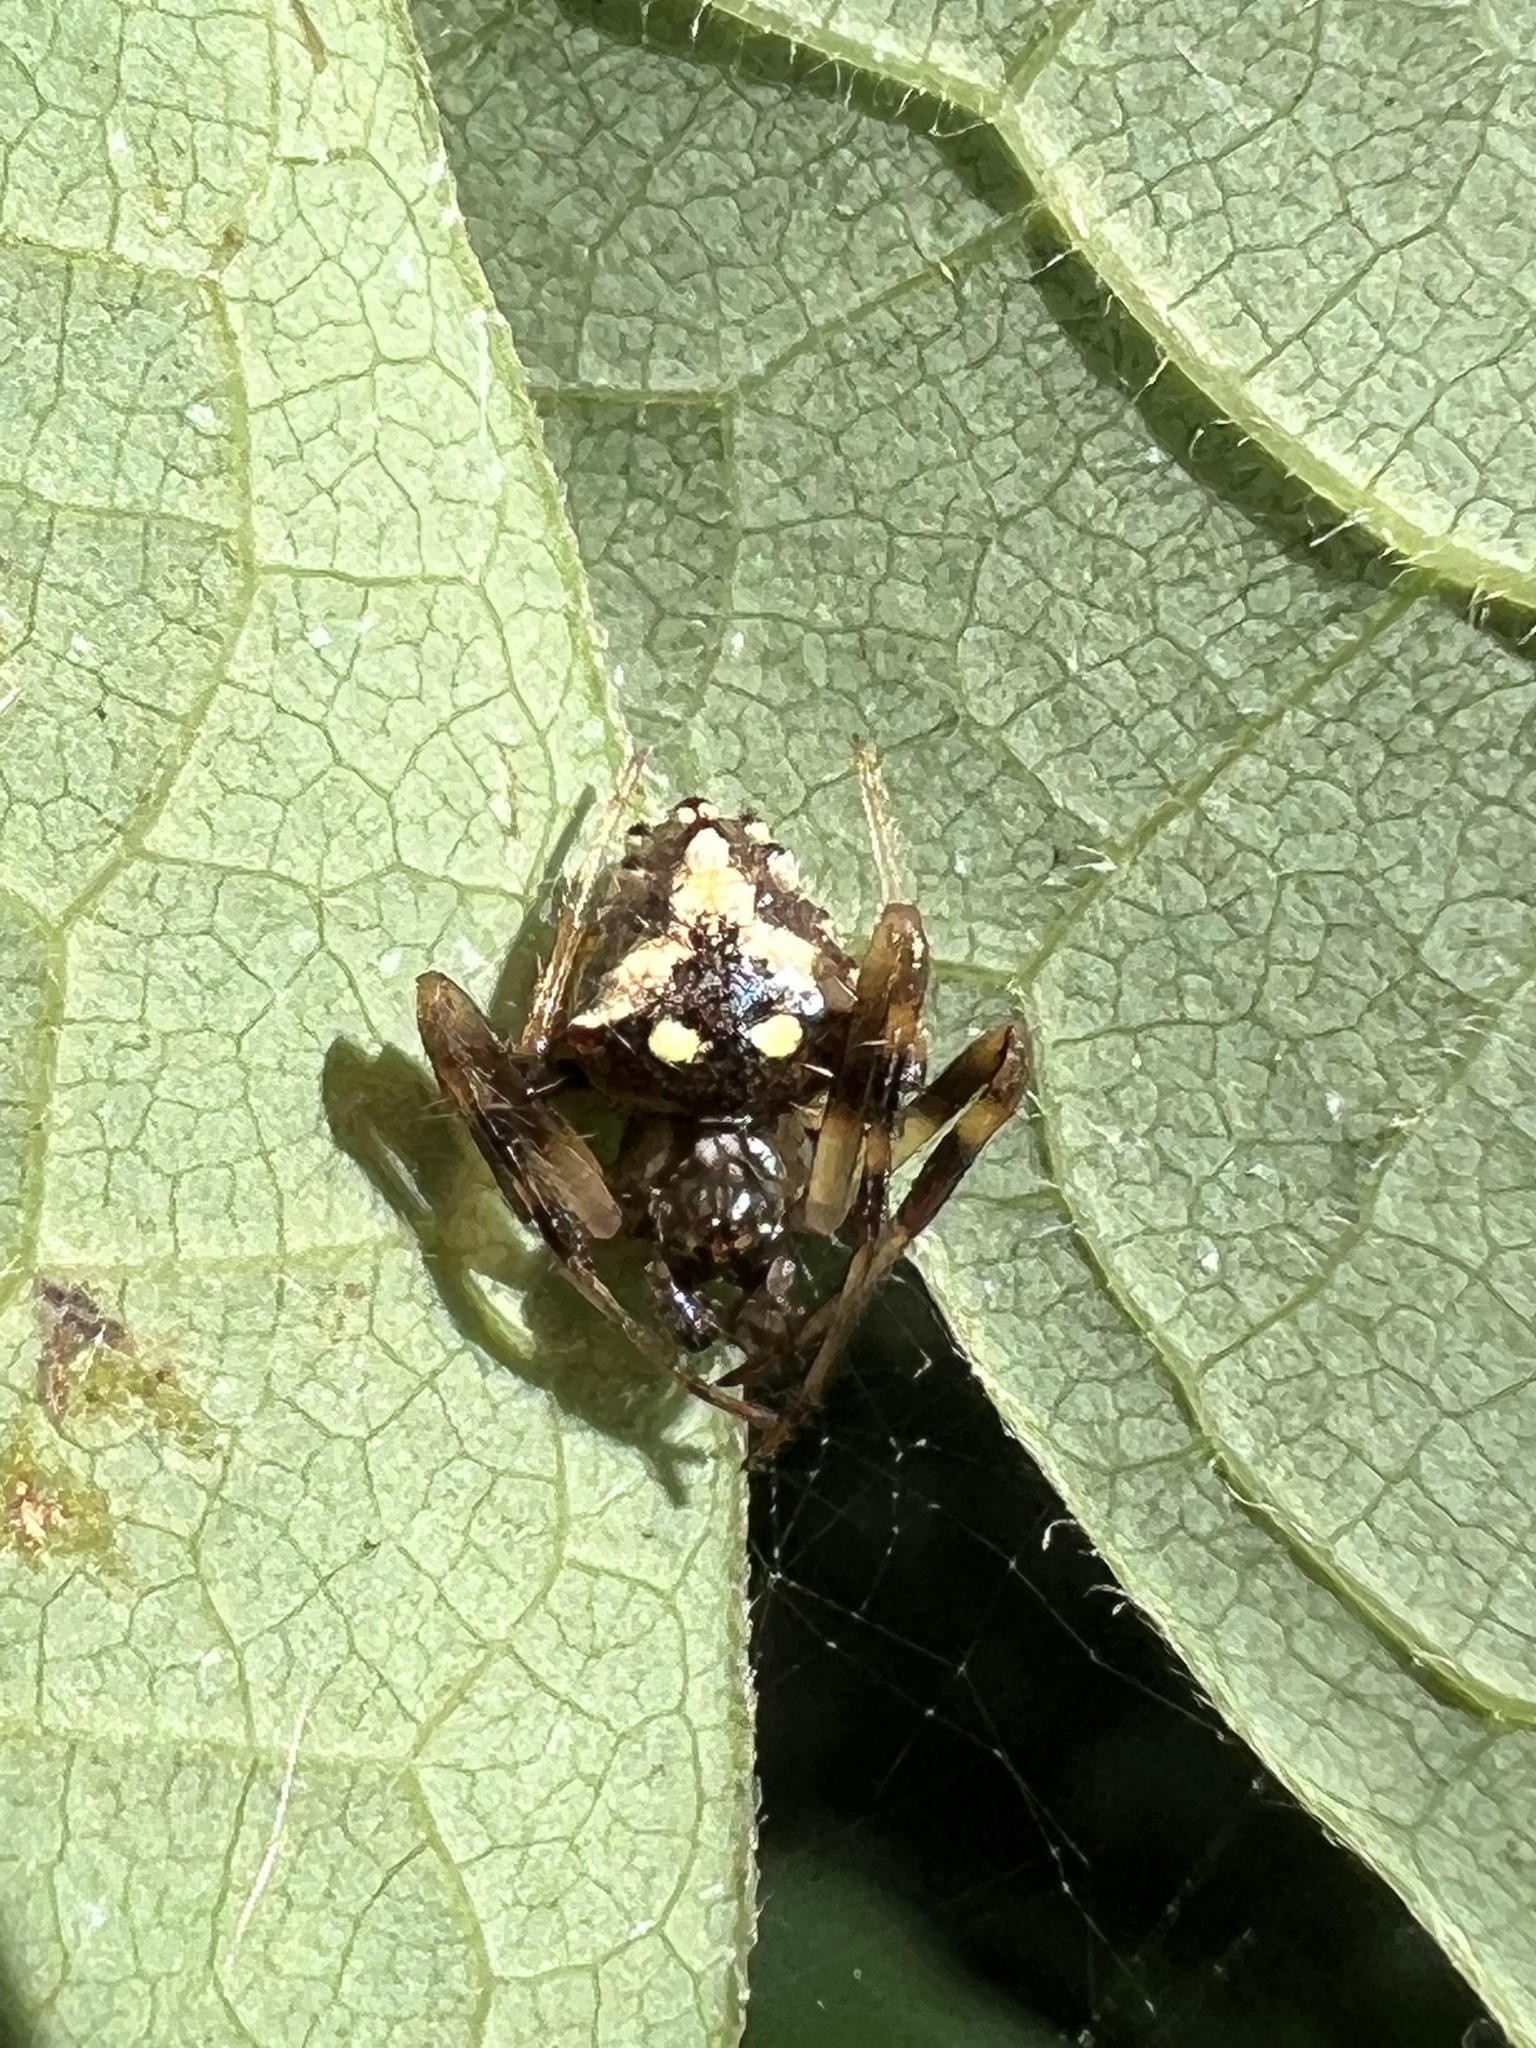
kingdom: Animalia
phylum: Arthropoda
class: Arachnida
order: Araneae
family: Araneidae
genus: Verrucosa
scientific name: Verrucosa arenata
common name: Orb weavers
